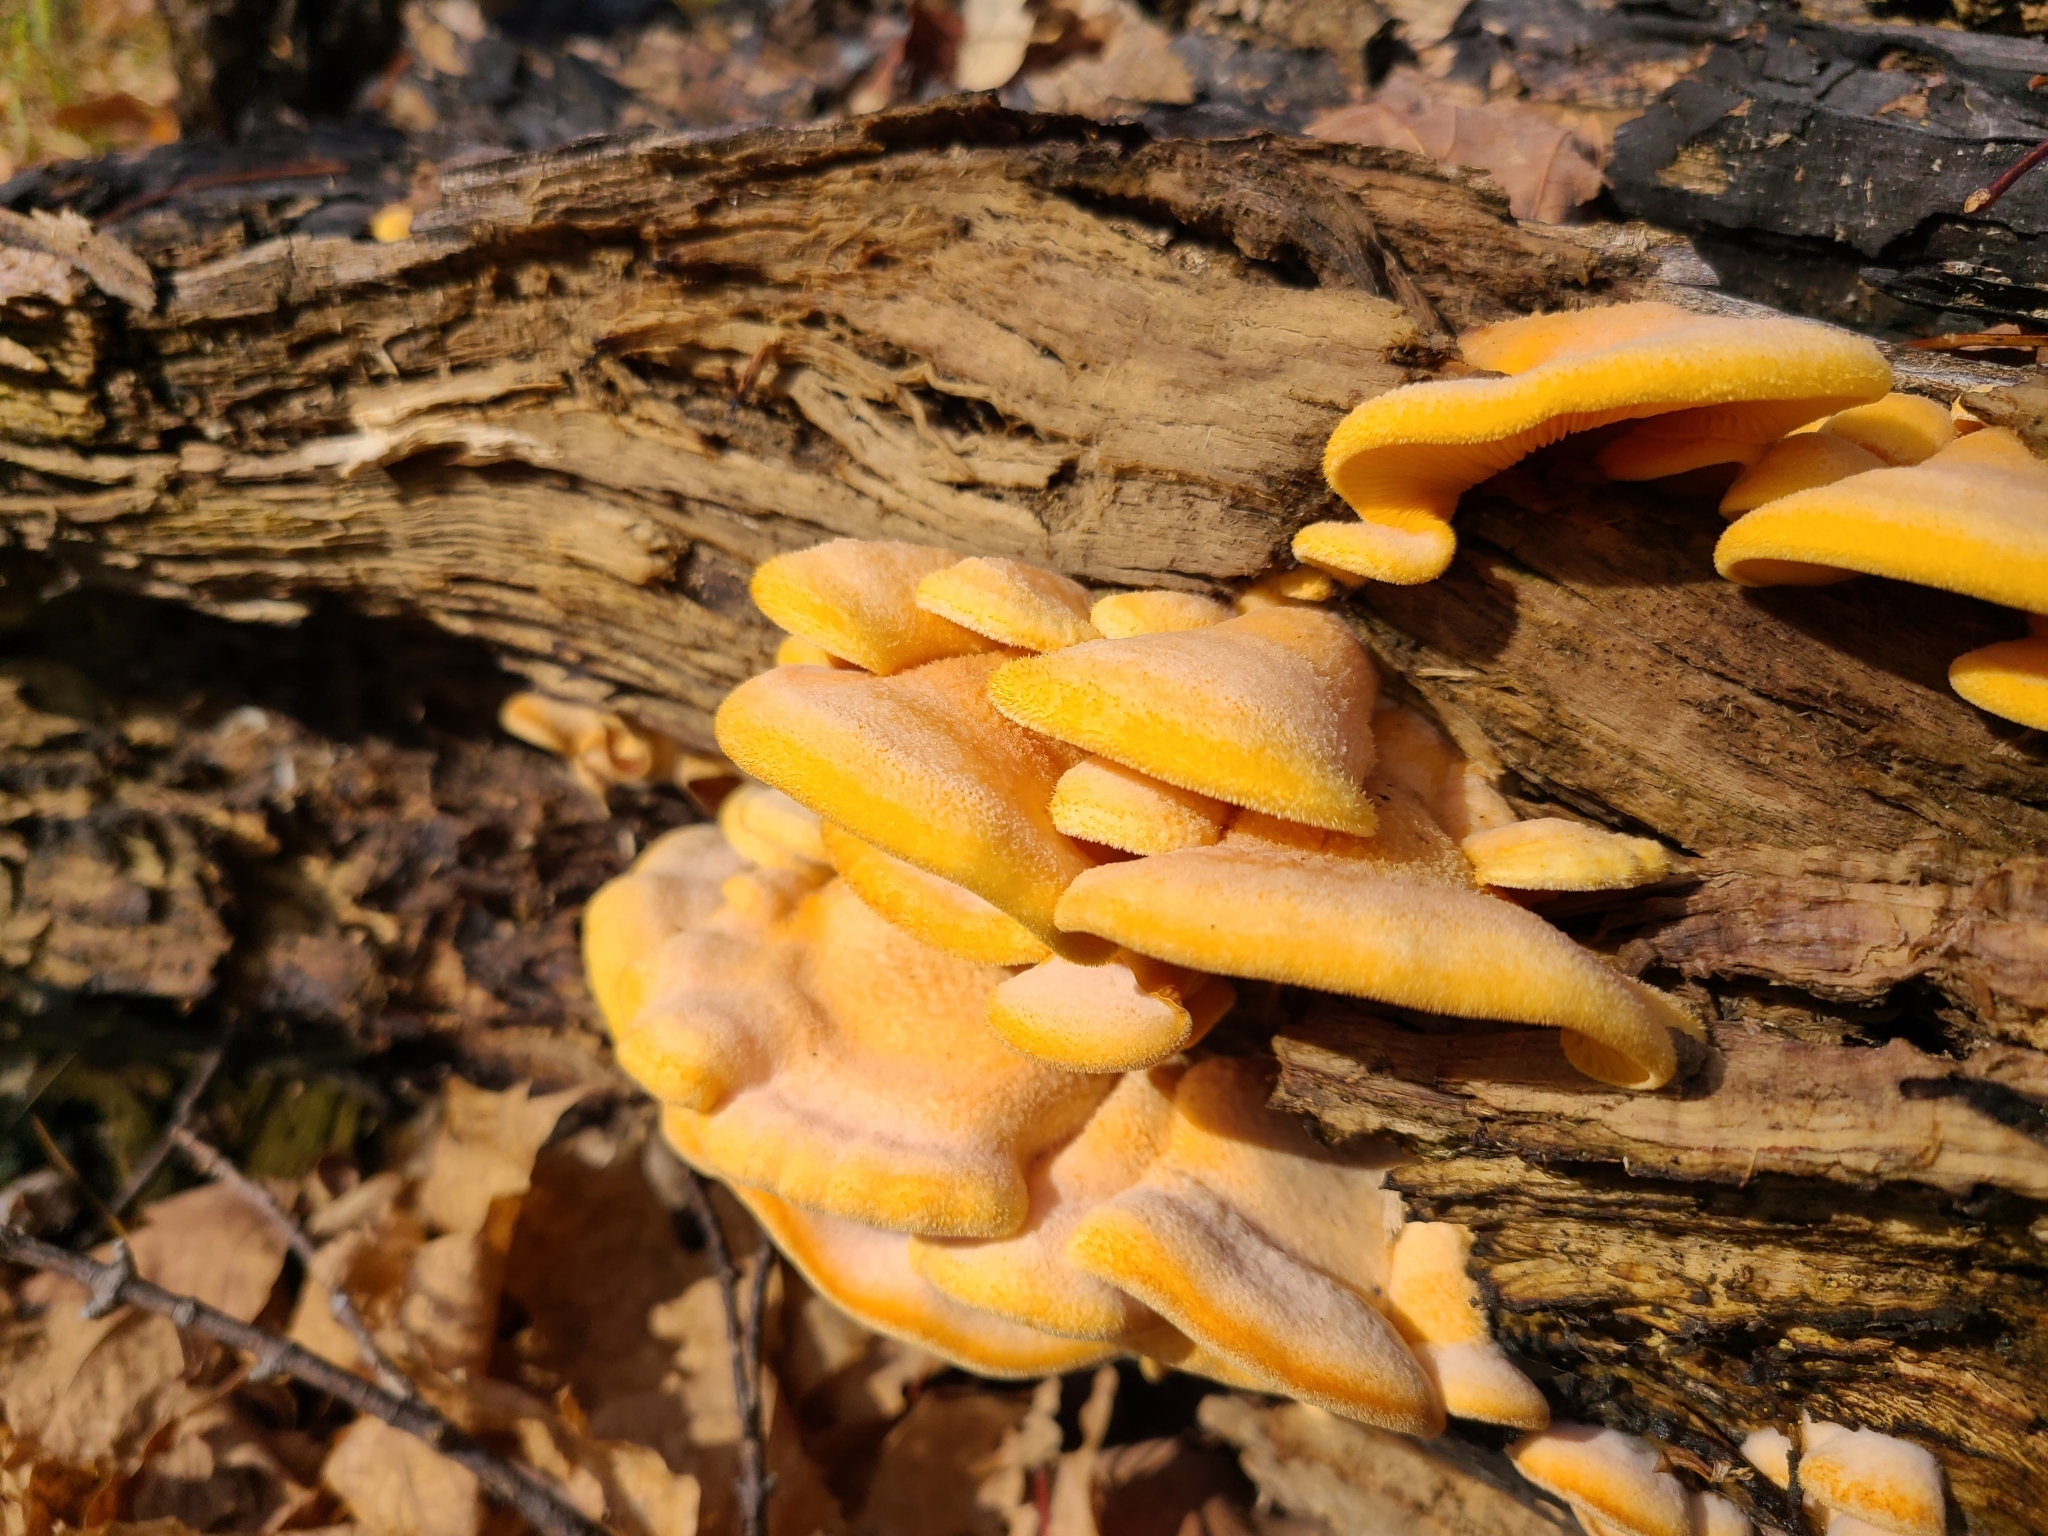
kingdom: Fungi
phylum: Basidiomycota
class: Agaricomycetes
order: Agaricales
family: Phyllotopsidaceae
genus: Phyllotopsis
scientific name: Phyllotopsis nidulans
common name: Orange mock oyster
